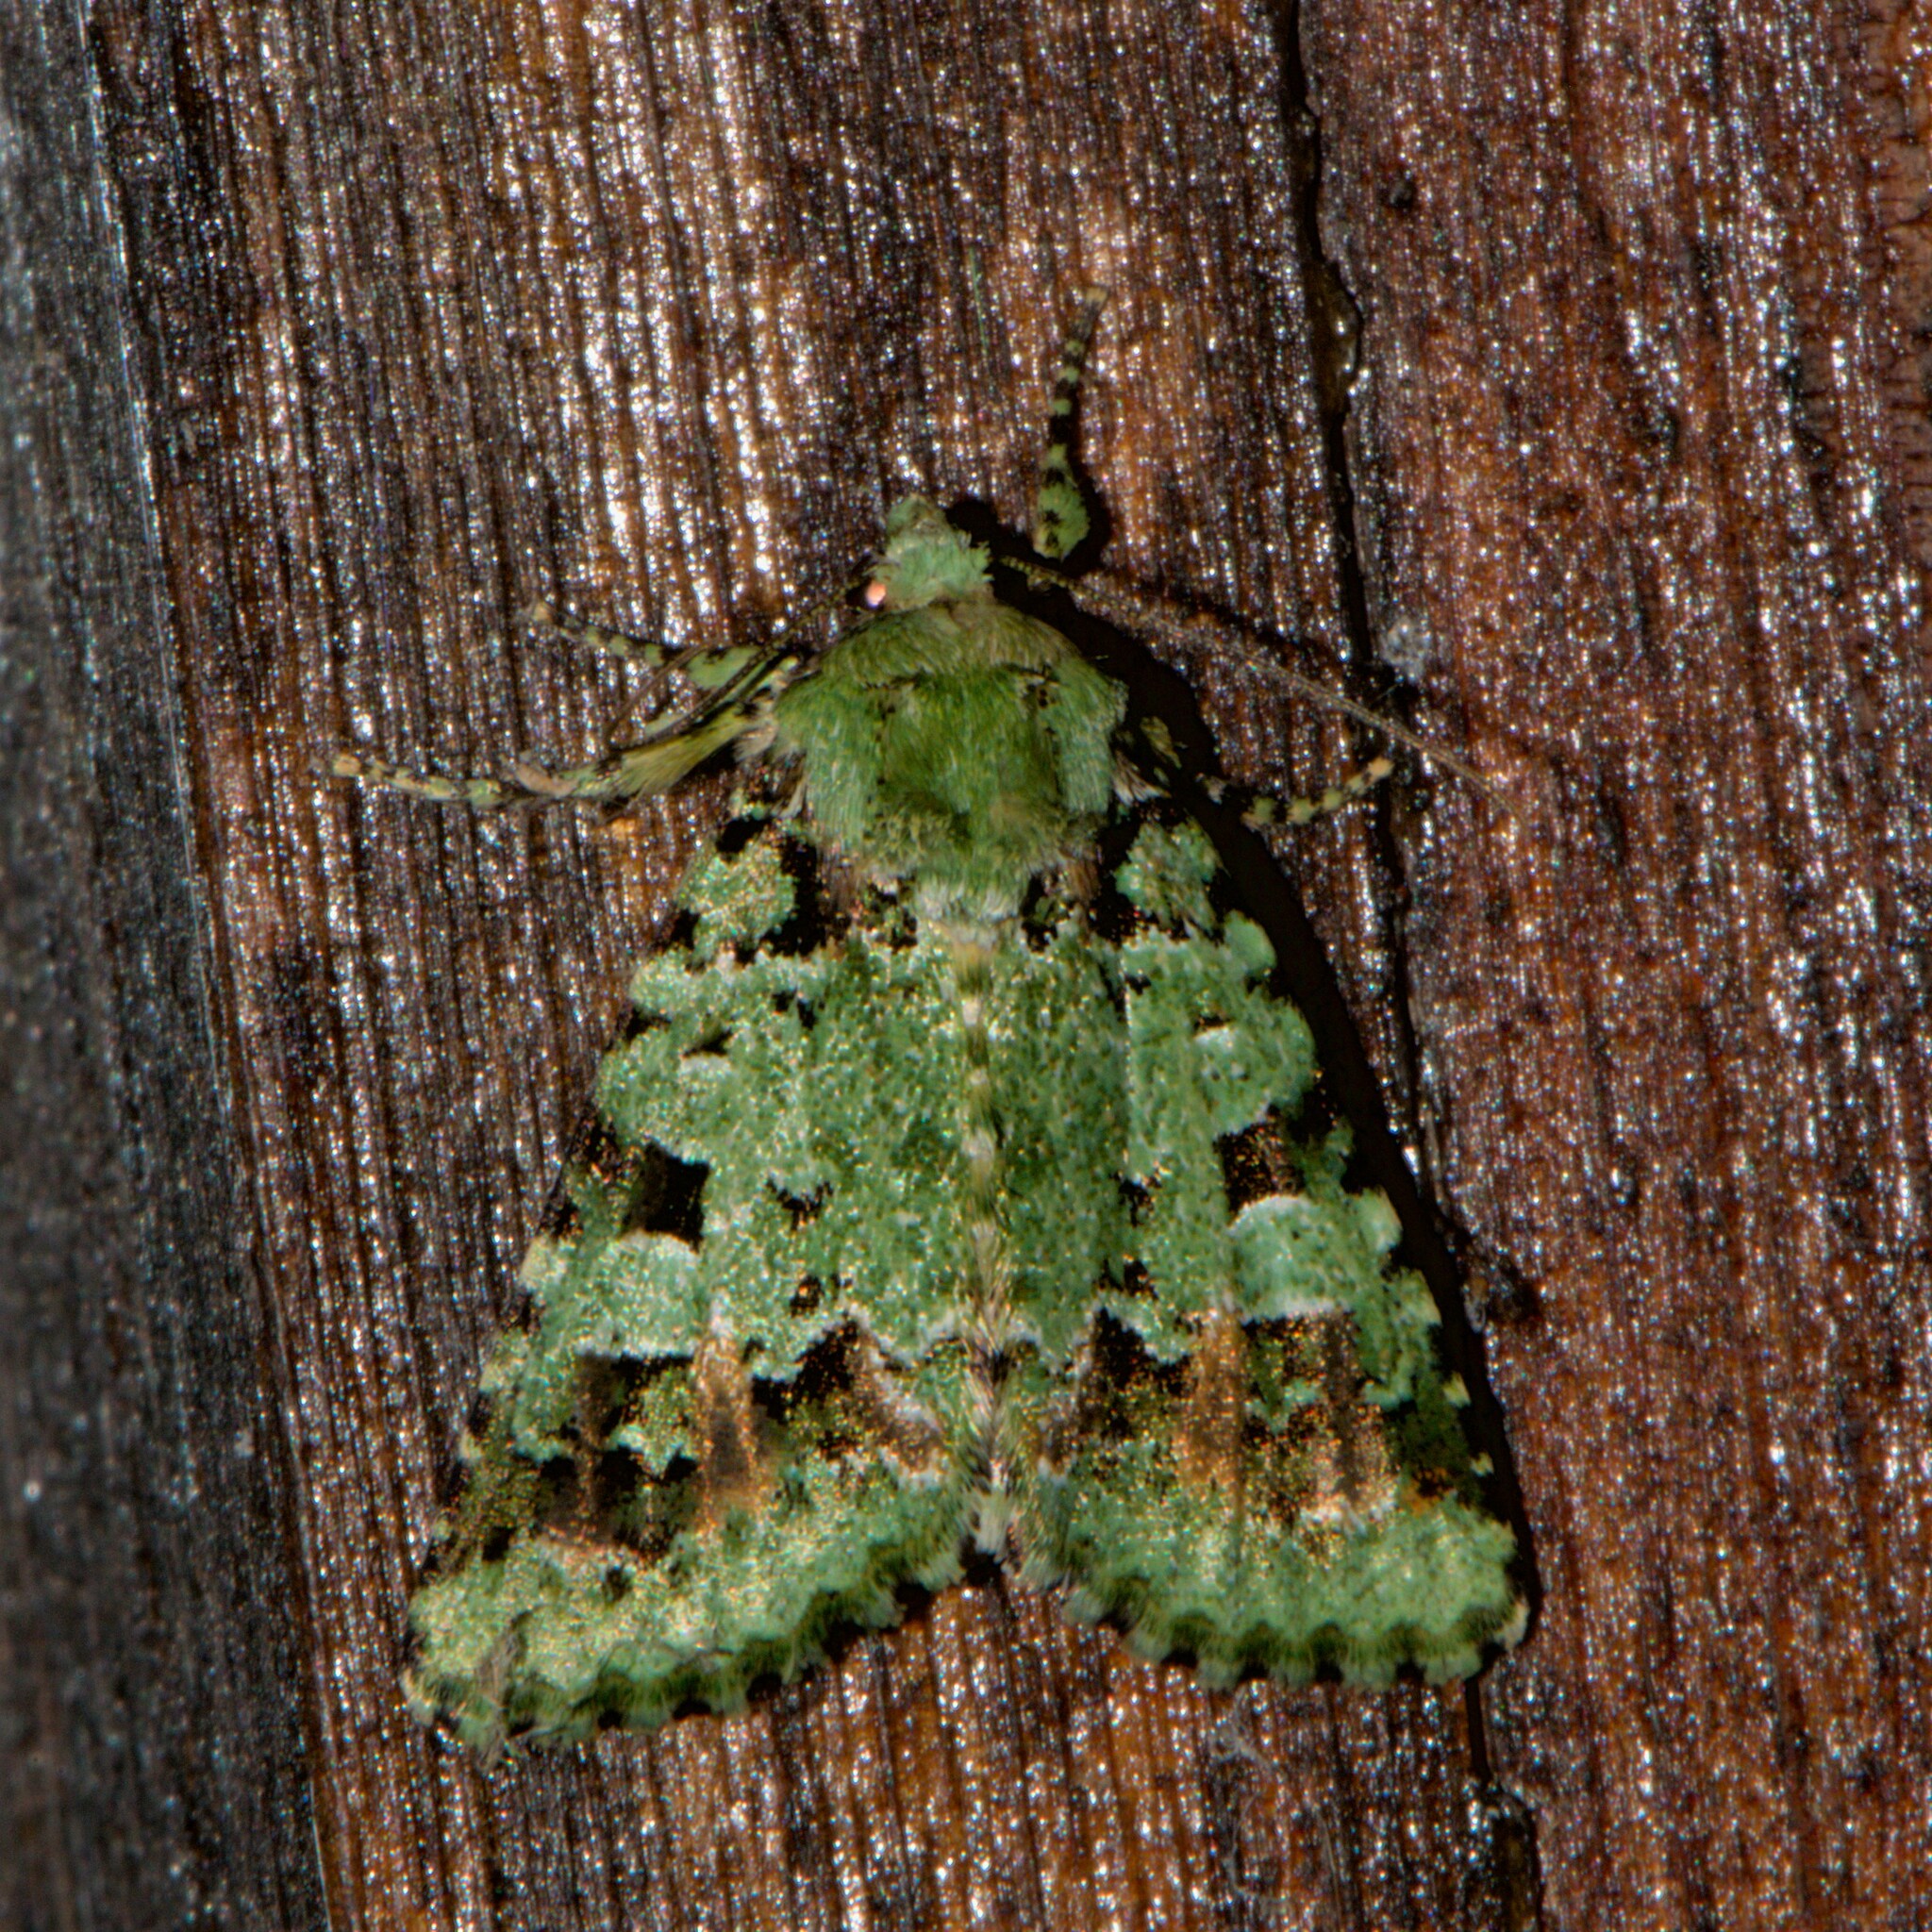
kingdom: Animalia
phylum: Arthropoda
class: Insecta
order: Lepidoptera
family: Noctuidae
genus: Diphtherocome
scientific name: Diphtherocome discibrunnea
